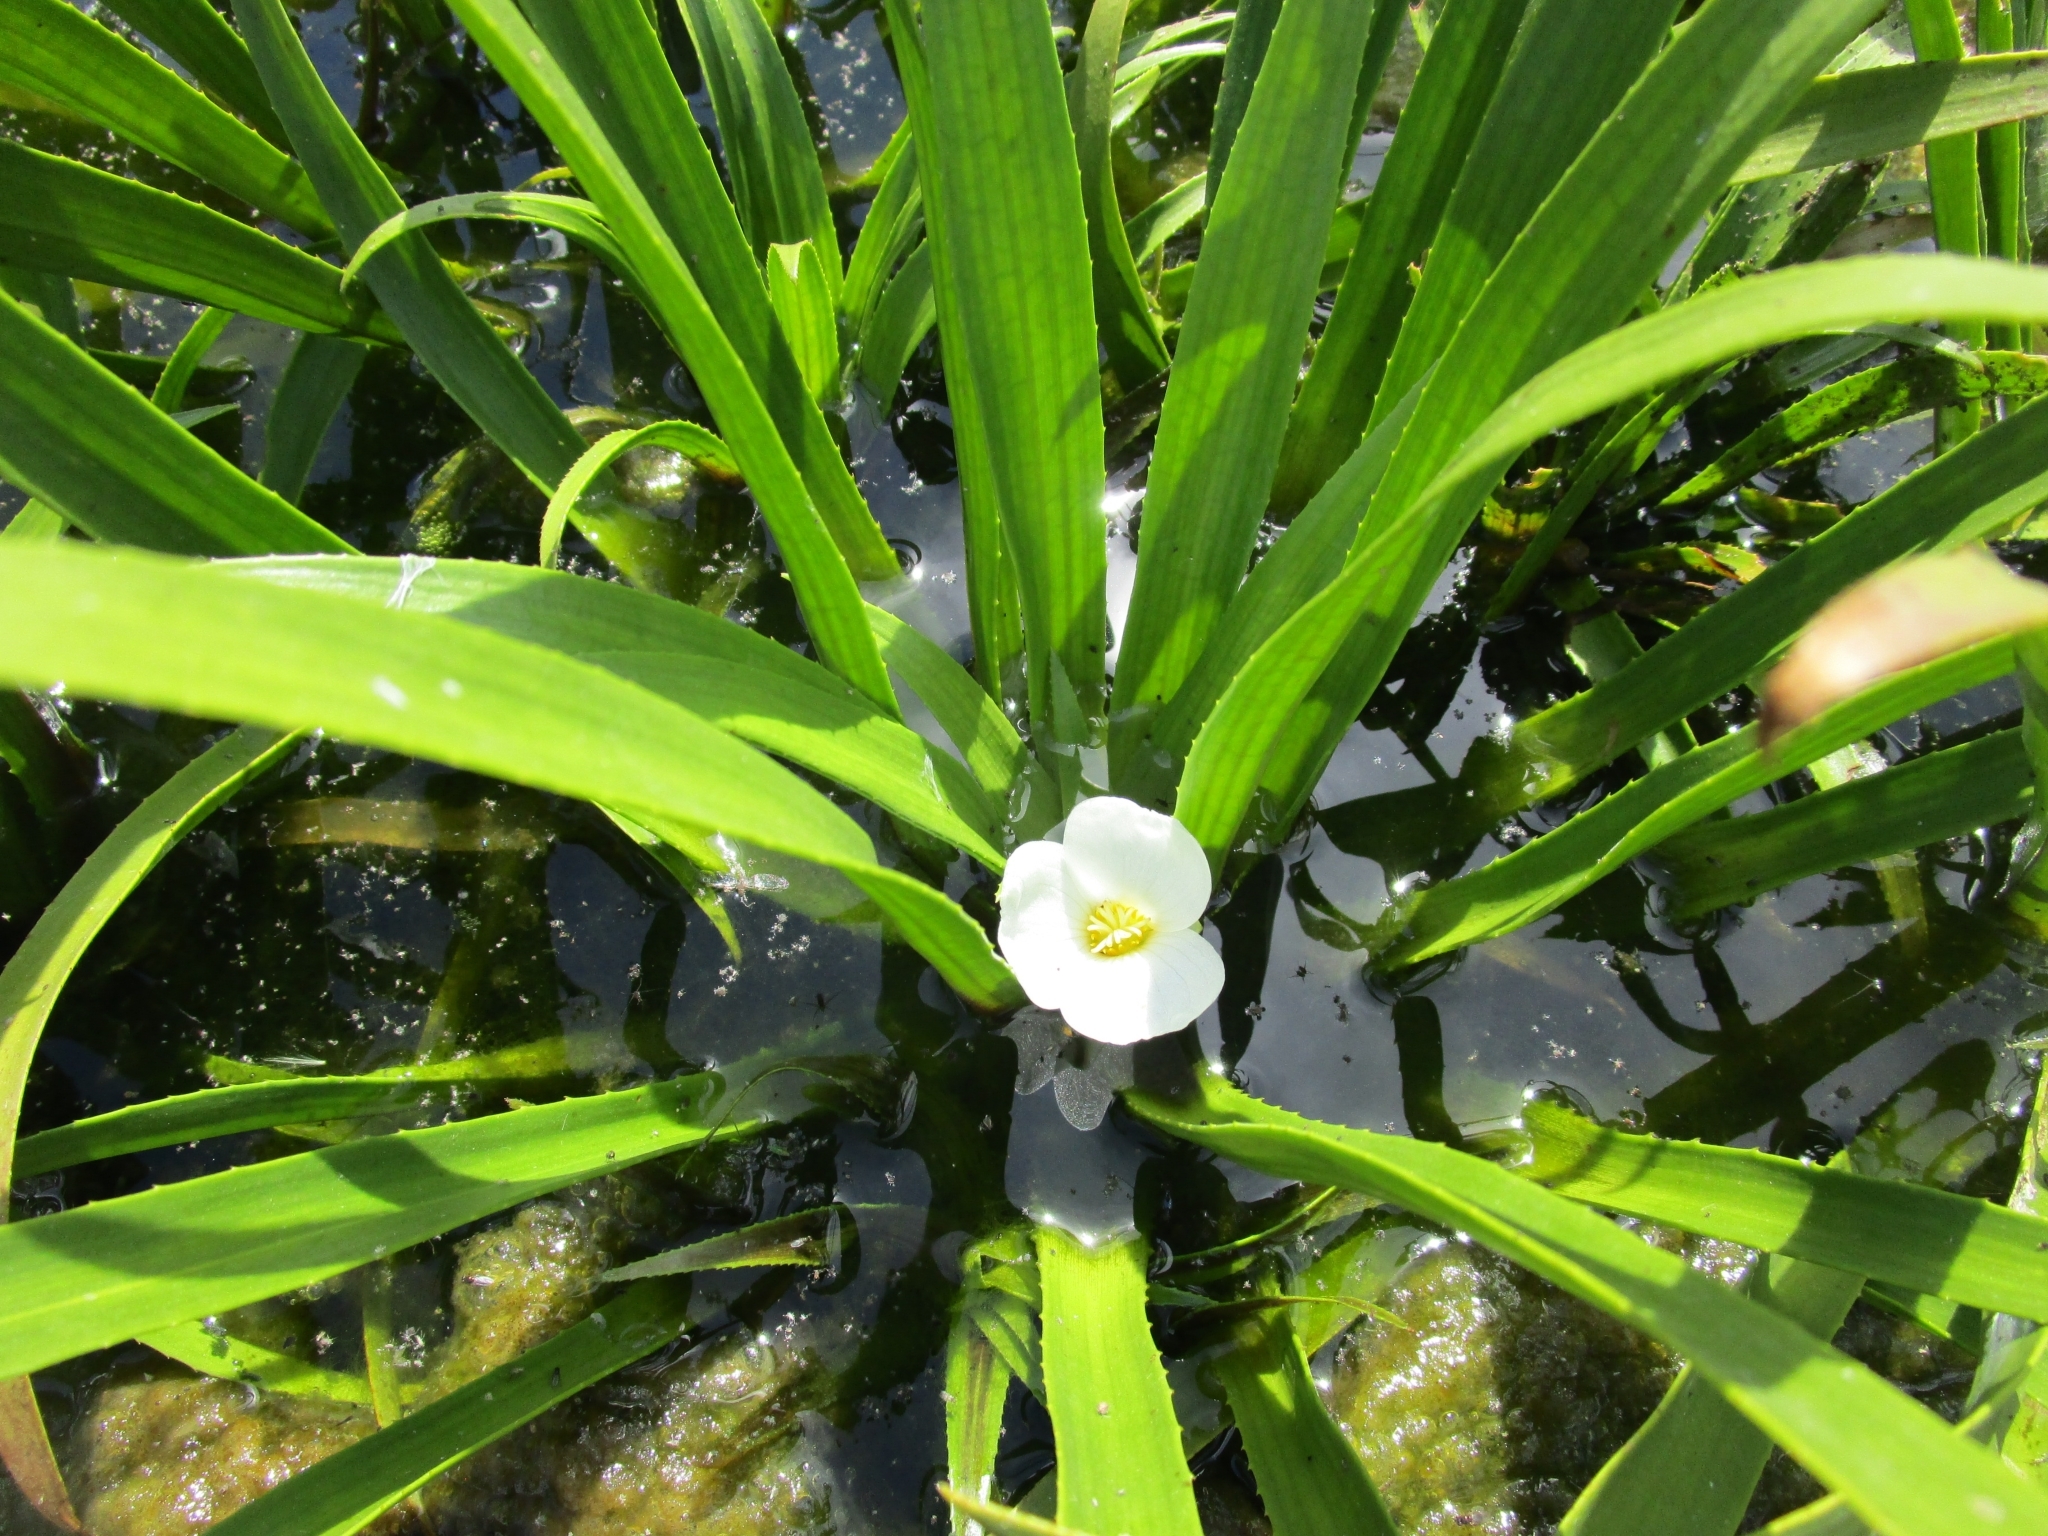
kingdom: Plantae
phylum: Tracheophyta
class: Liliopsida
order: Alismatales
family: Hydrocharitaceae
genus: Stratiotes
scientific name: Stratiotes aloides
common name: Water-soldier
